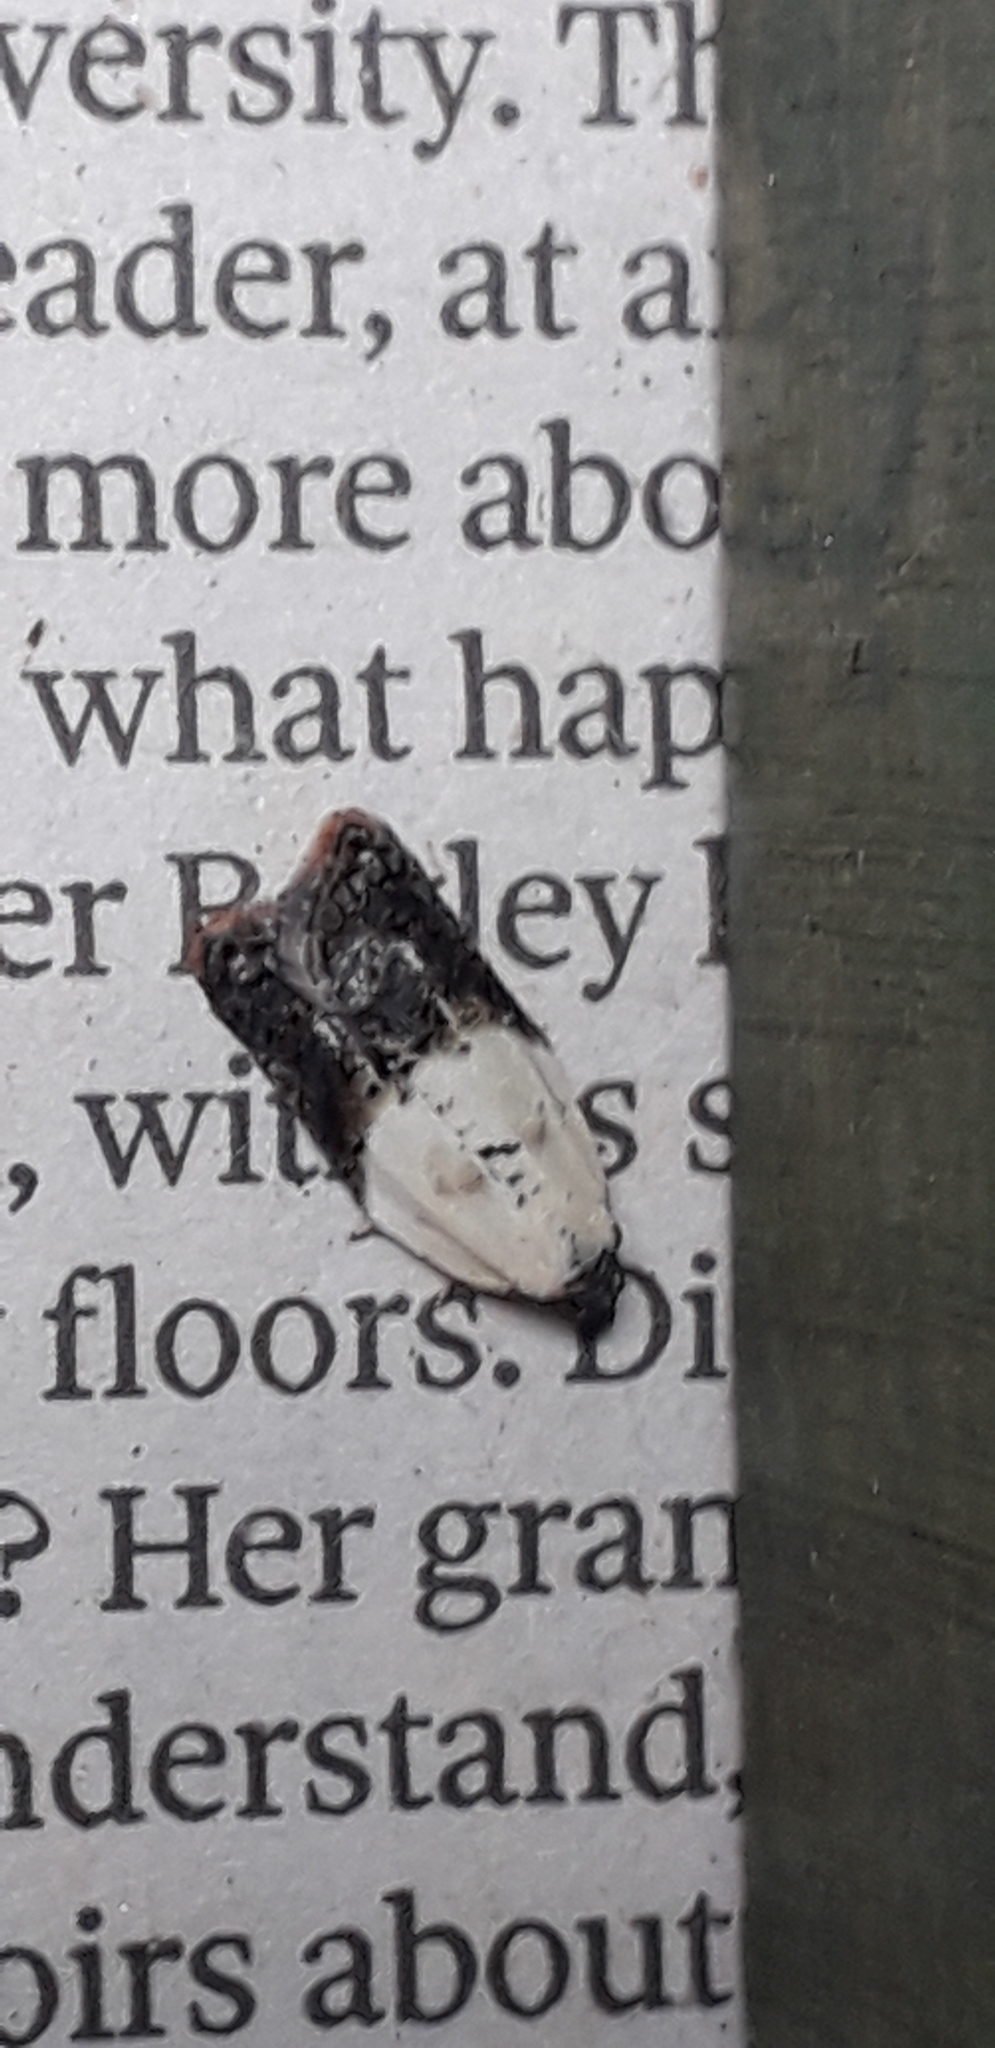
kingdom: Animalia
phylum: Arthropoda
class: Insecta
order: Lepidoptera
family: Tortricidae
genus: Acleris
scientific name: Acleris variegana
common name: Garden rose tortrix
